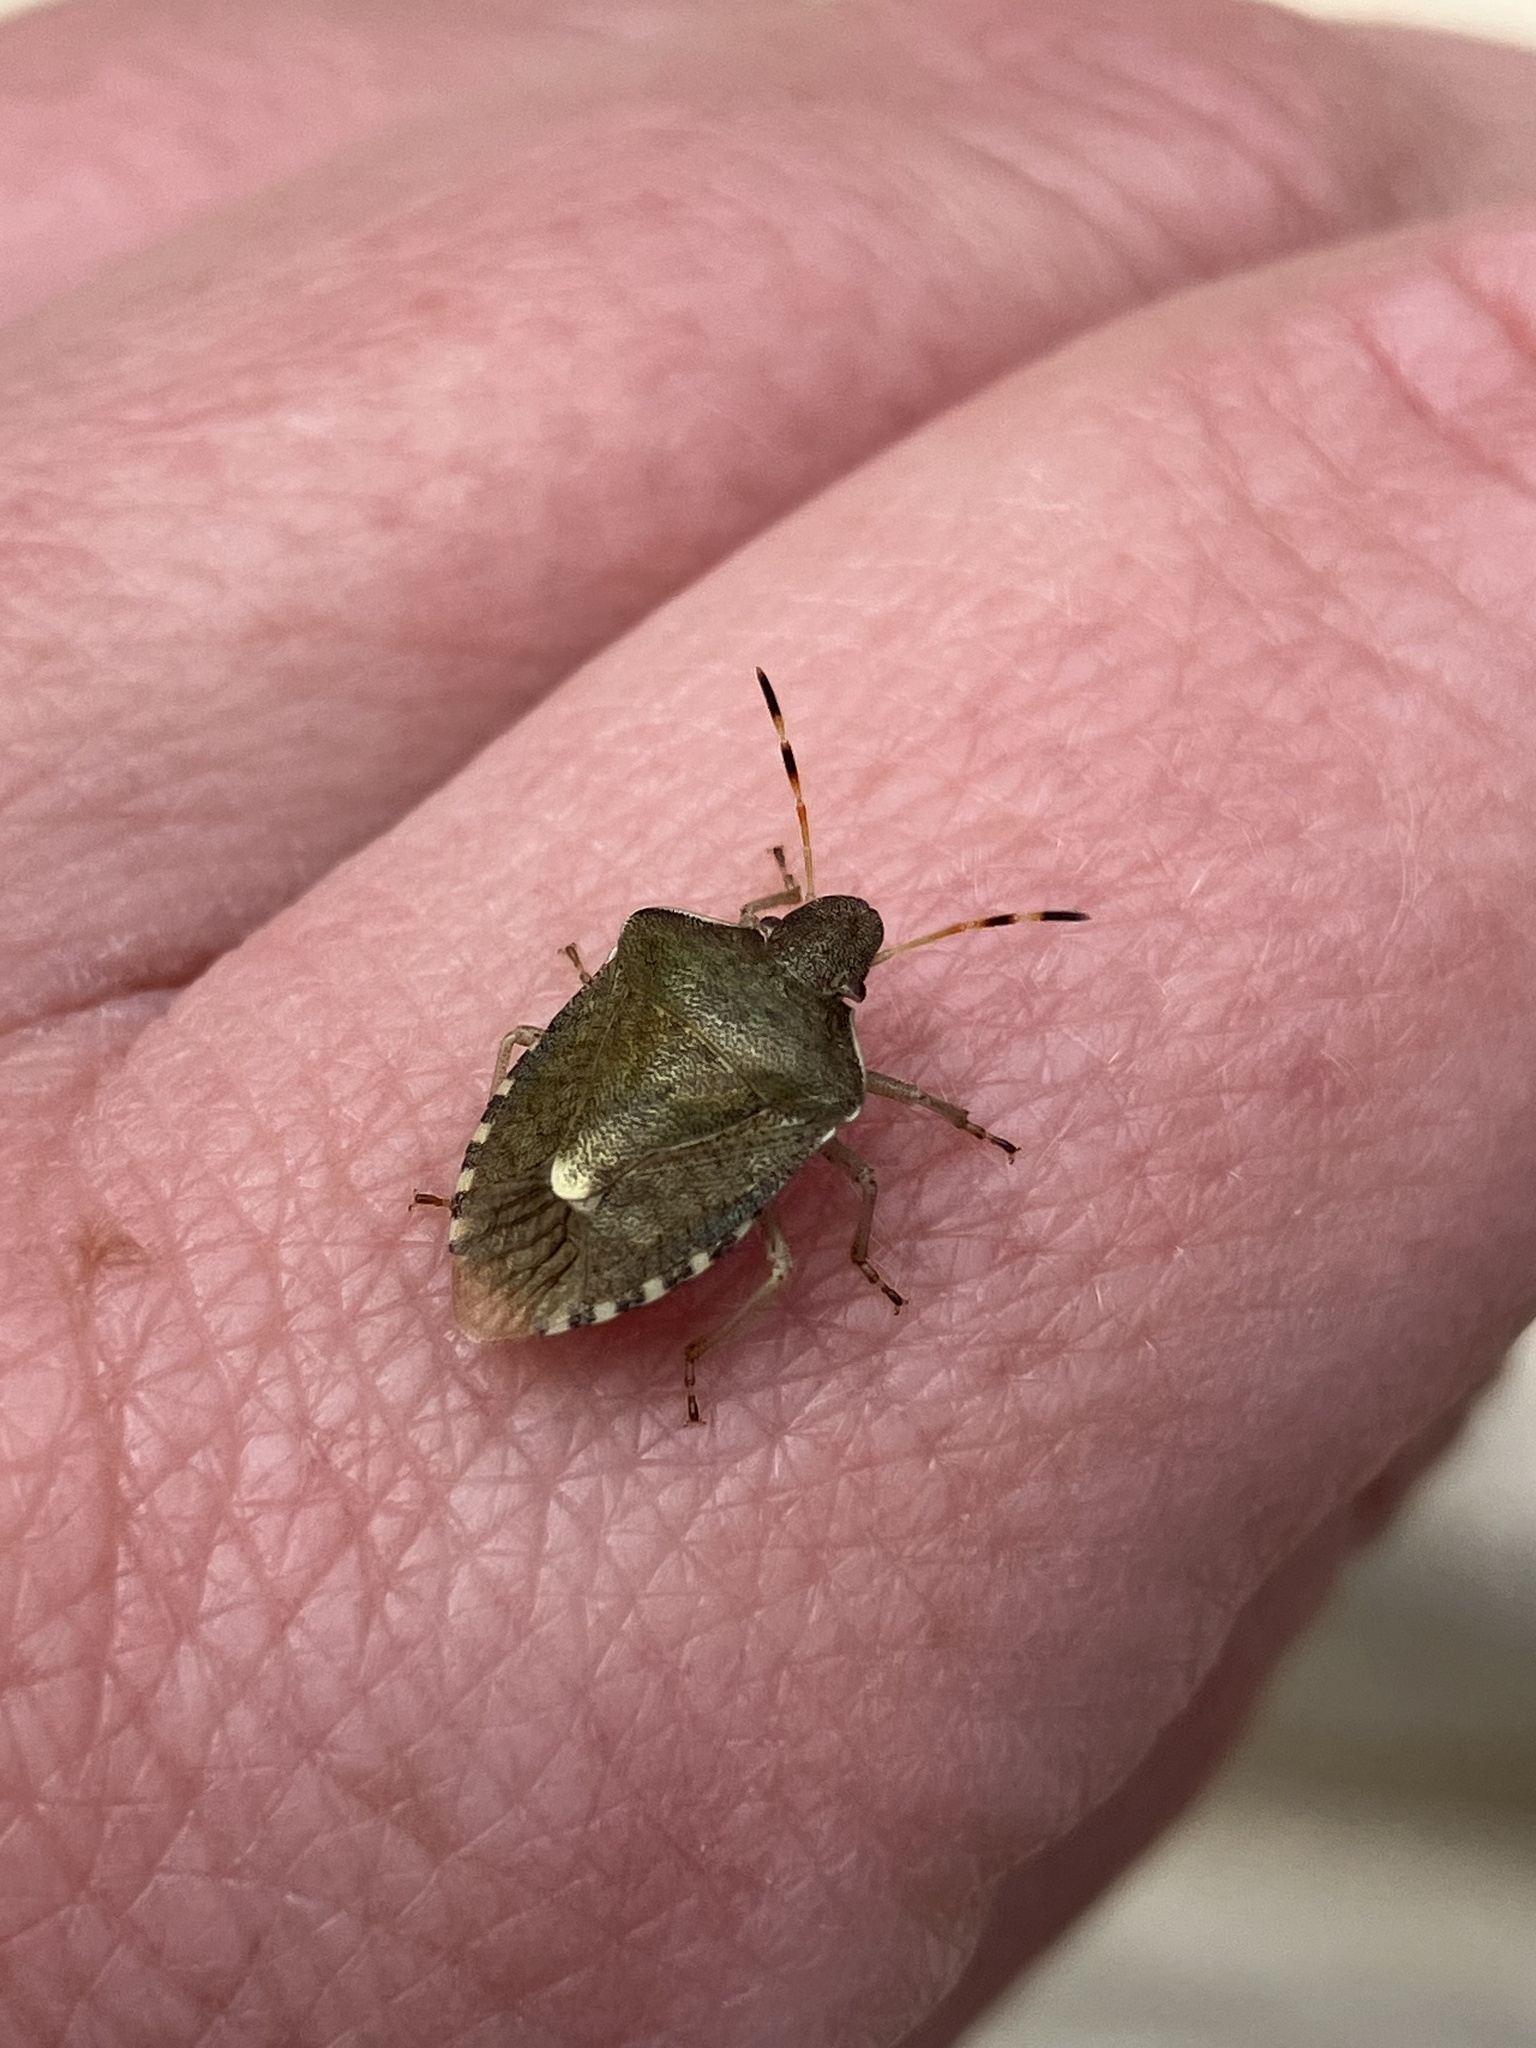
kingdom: Animalia
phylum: Arthropoda
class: Insecta
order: Hemiptera
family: Pentatomidae
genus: Holcostethus
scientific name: Holcostethus strictus
